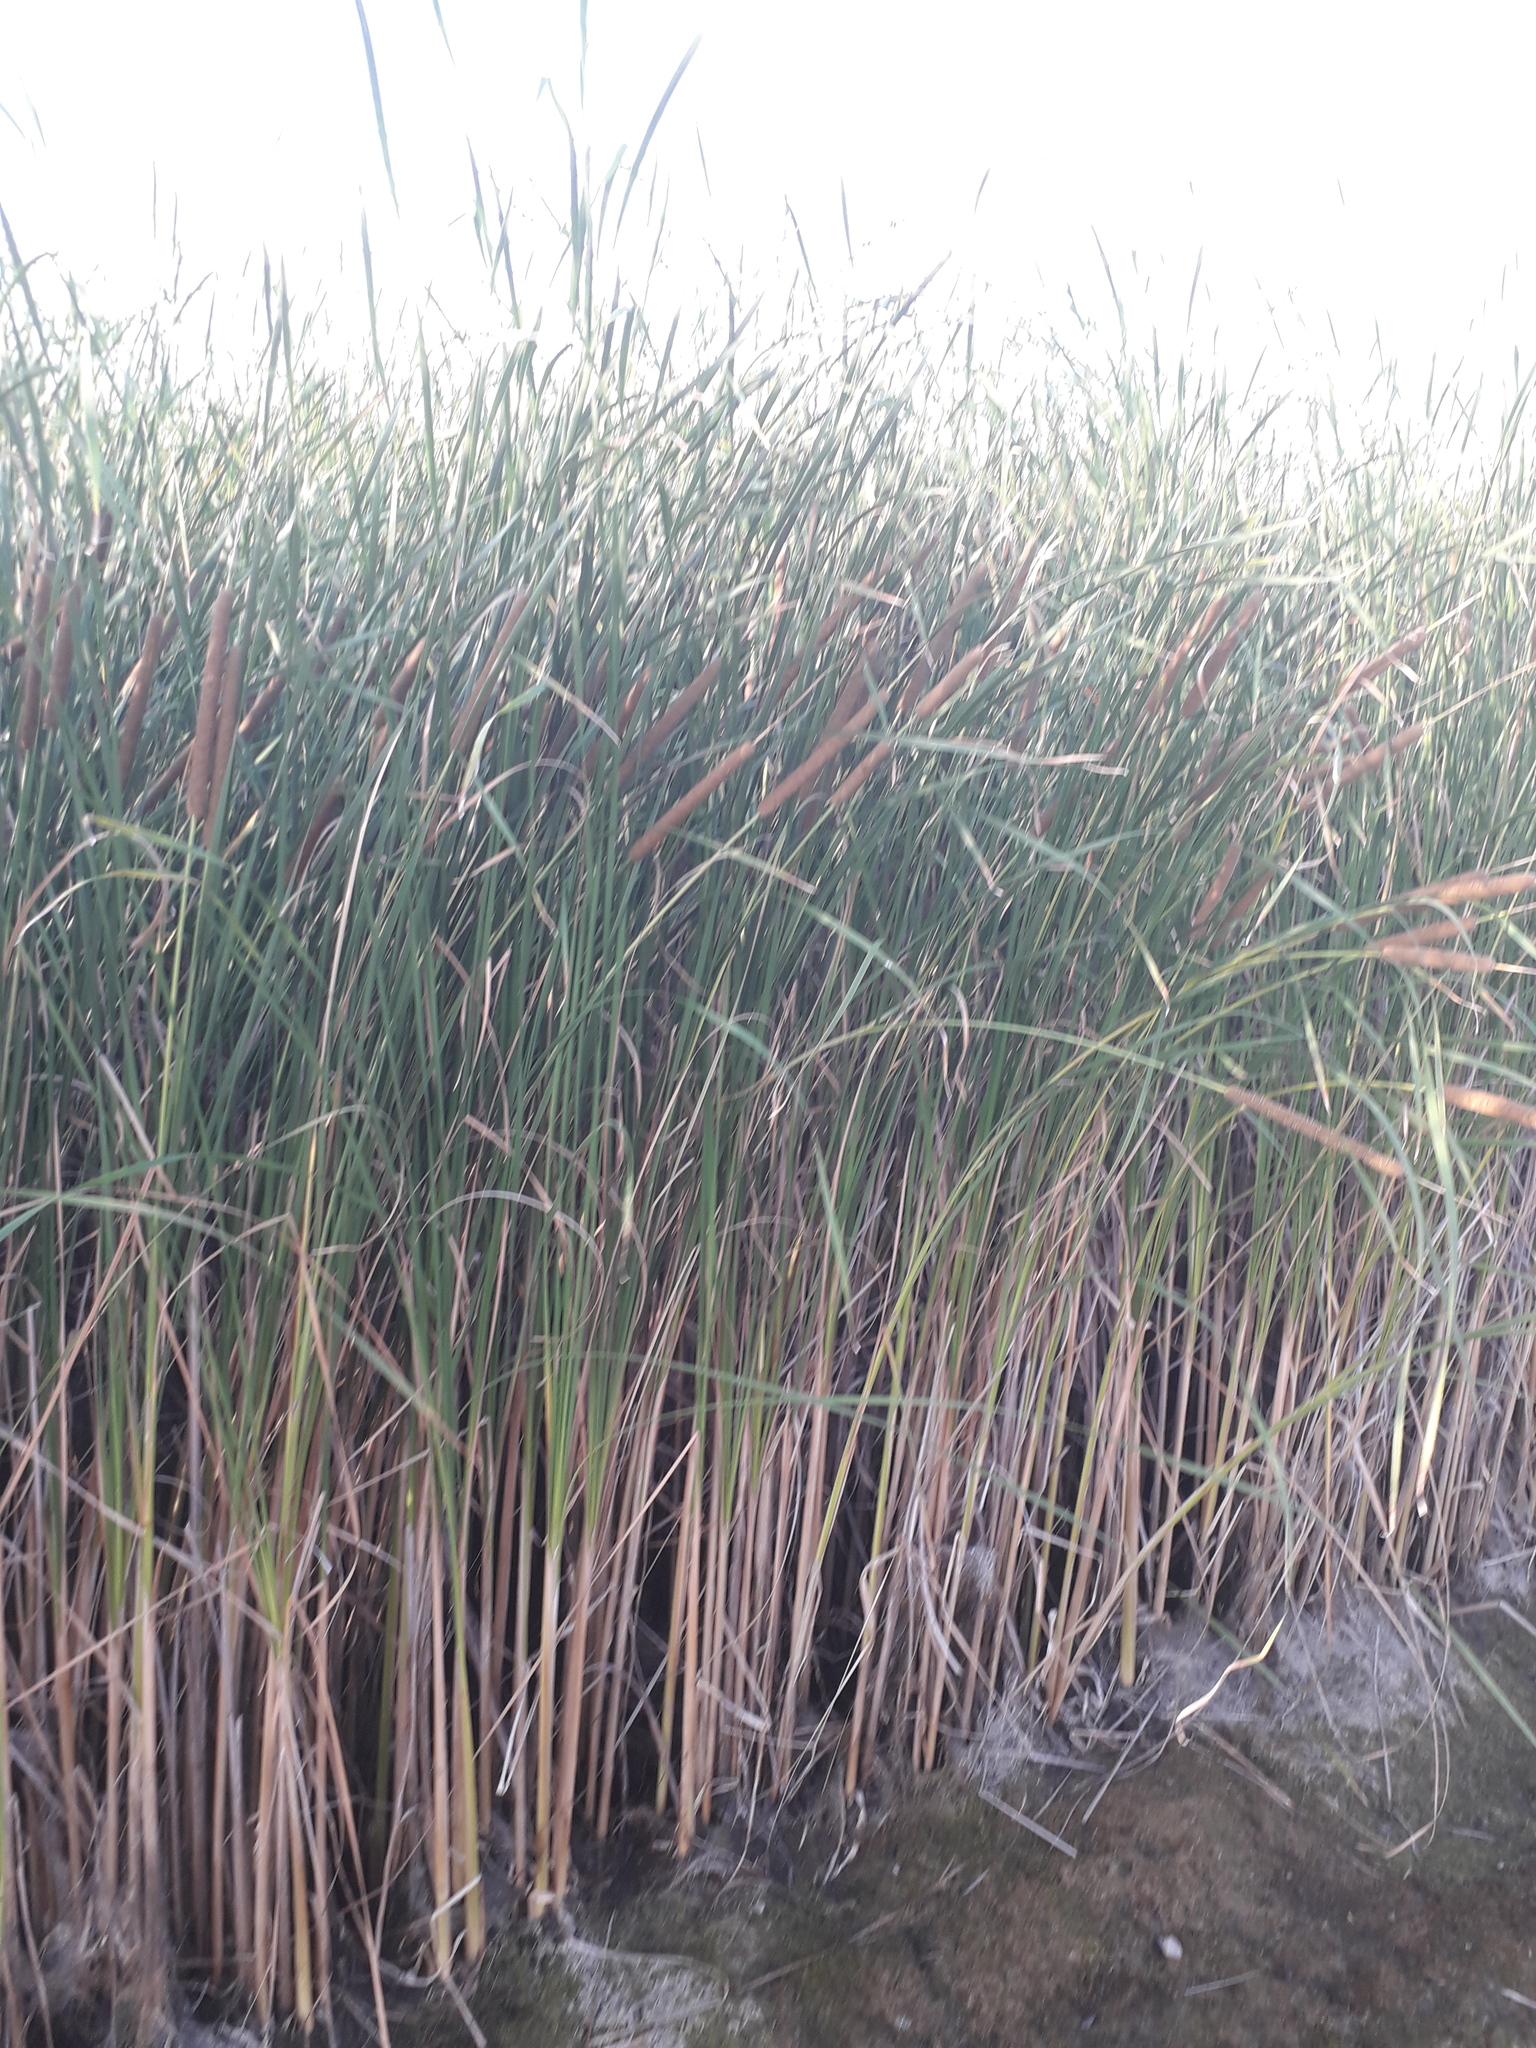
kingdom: Plantae
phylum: Tracheophyta
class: Liliopsida
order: Poales
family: Typhaceae
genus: Typha
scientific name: Typha angustifolia
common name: Lesser bulrush
